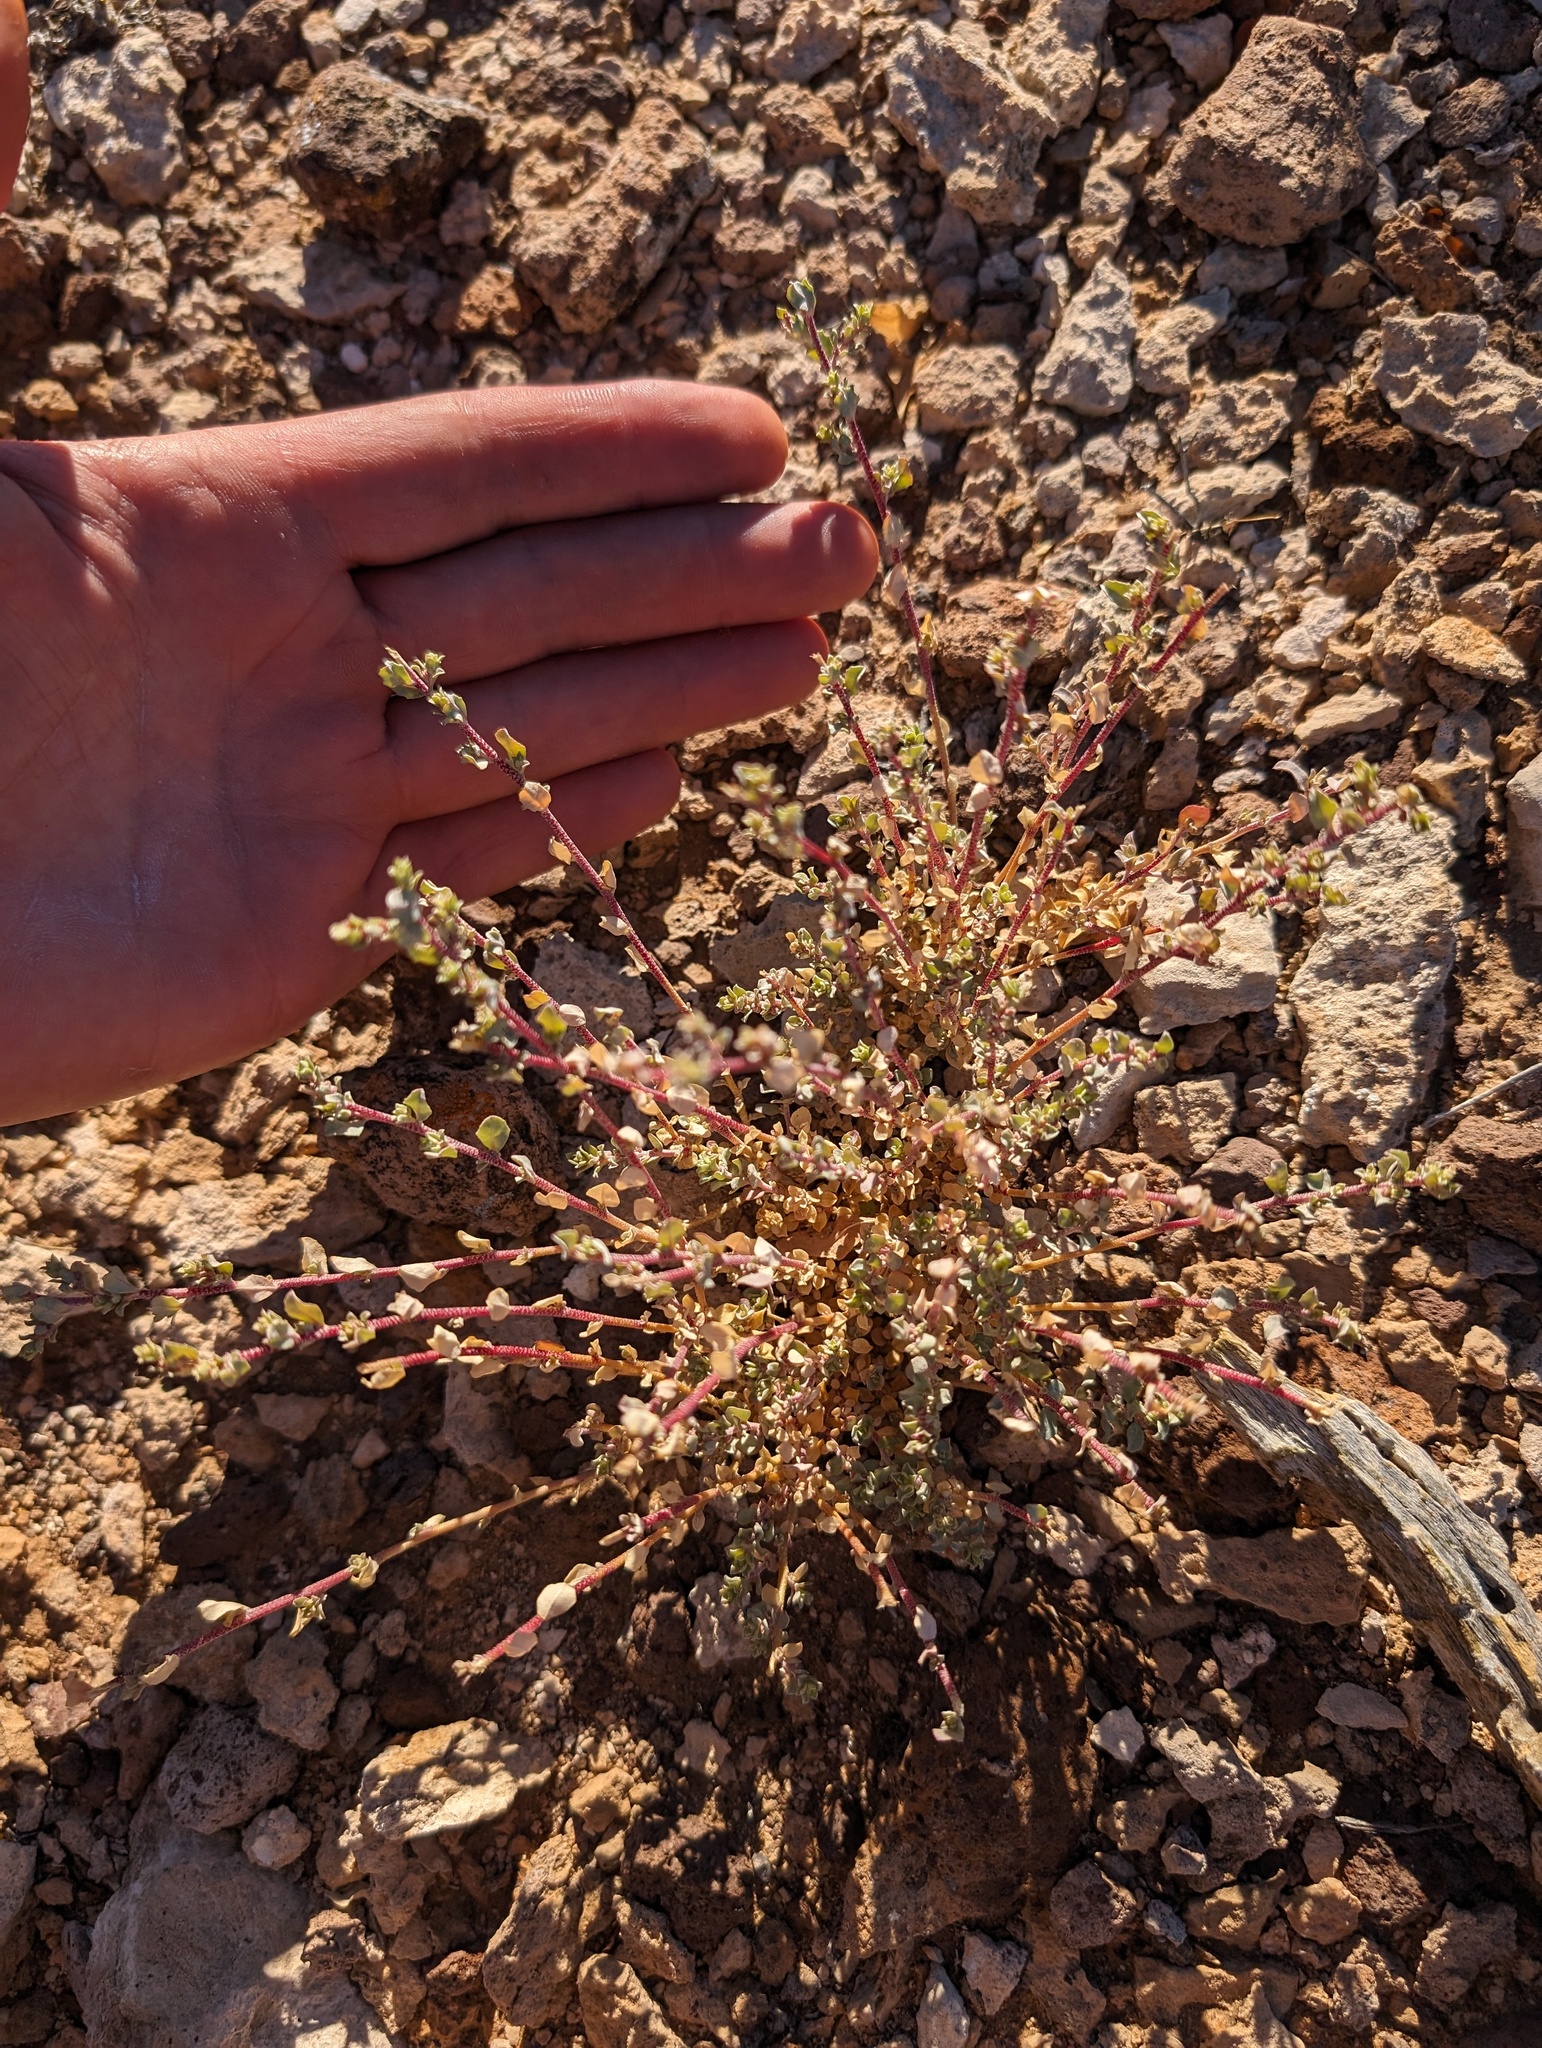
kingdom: Plantae
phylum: Tracheophyta
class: Magnoliopsida
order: Caryophyllales
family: Amaranthaceae
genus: Atriplex
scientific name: Atriplex barclayana
